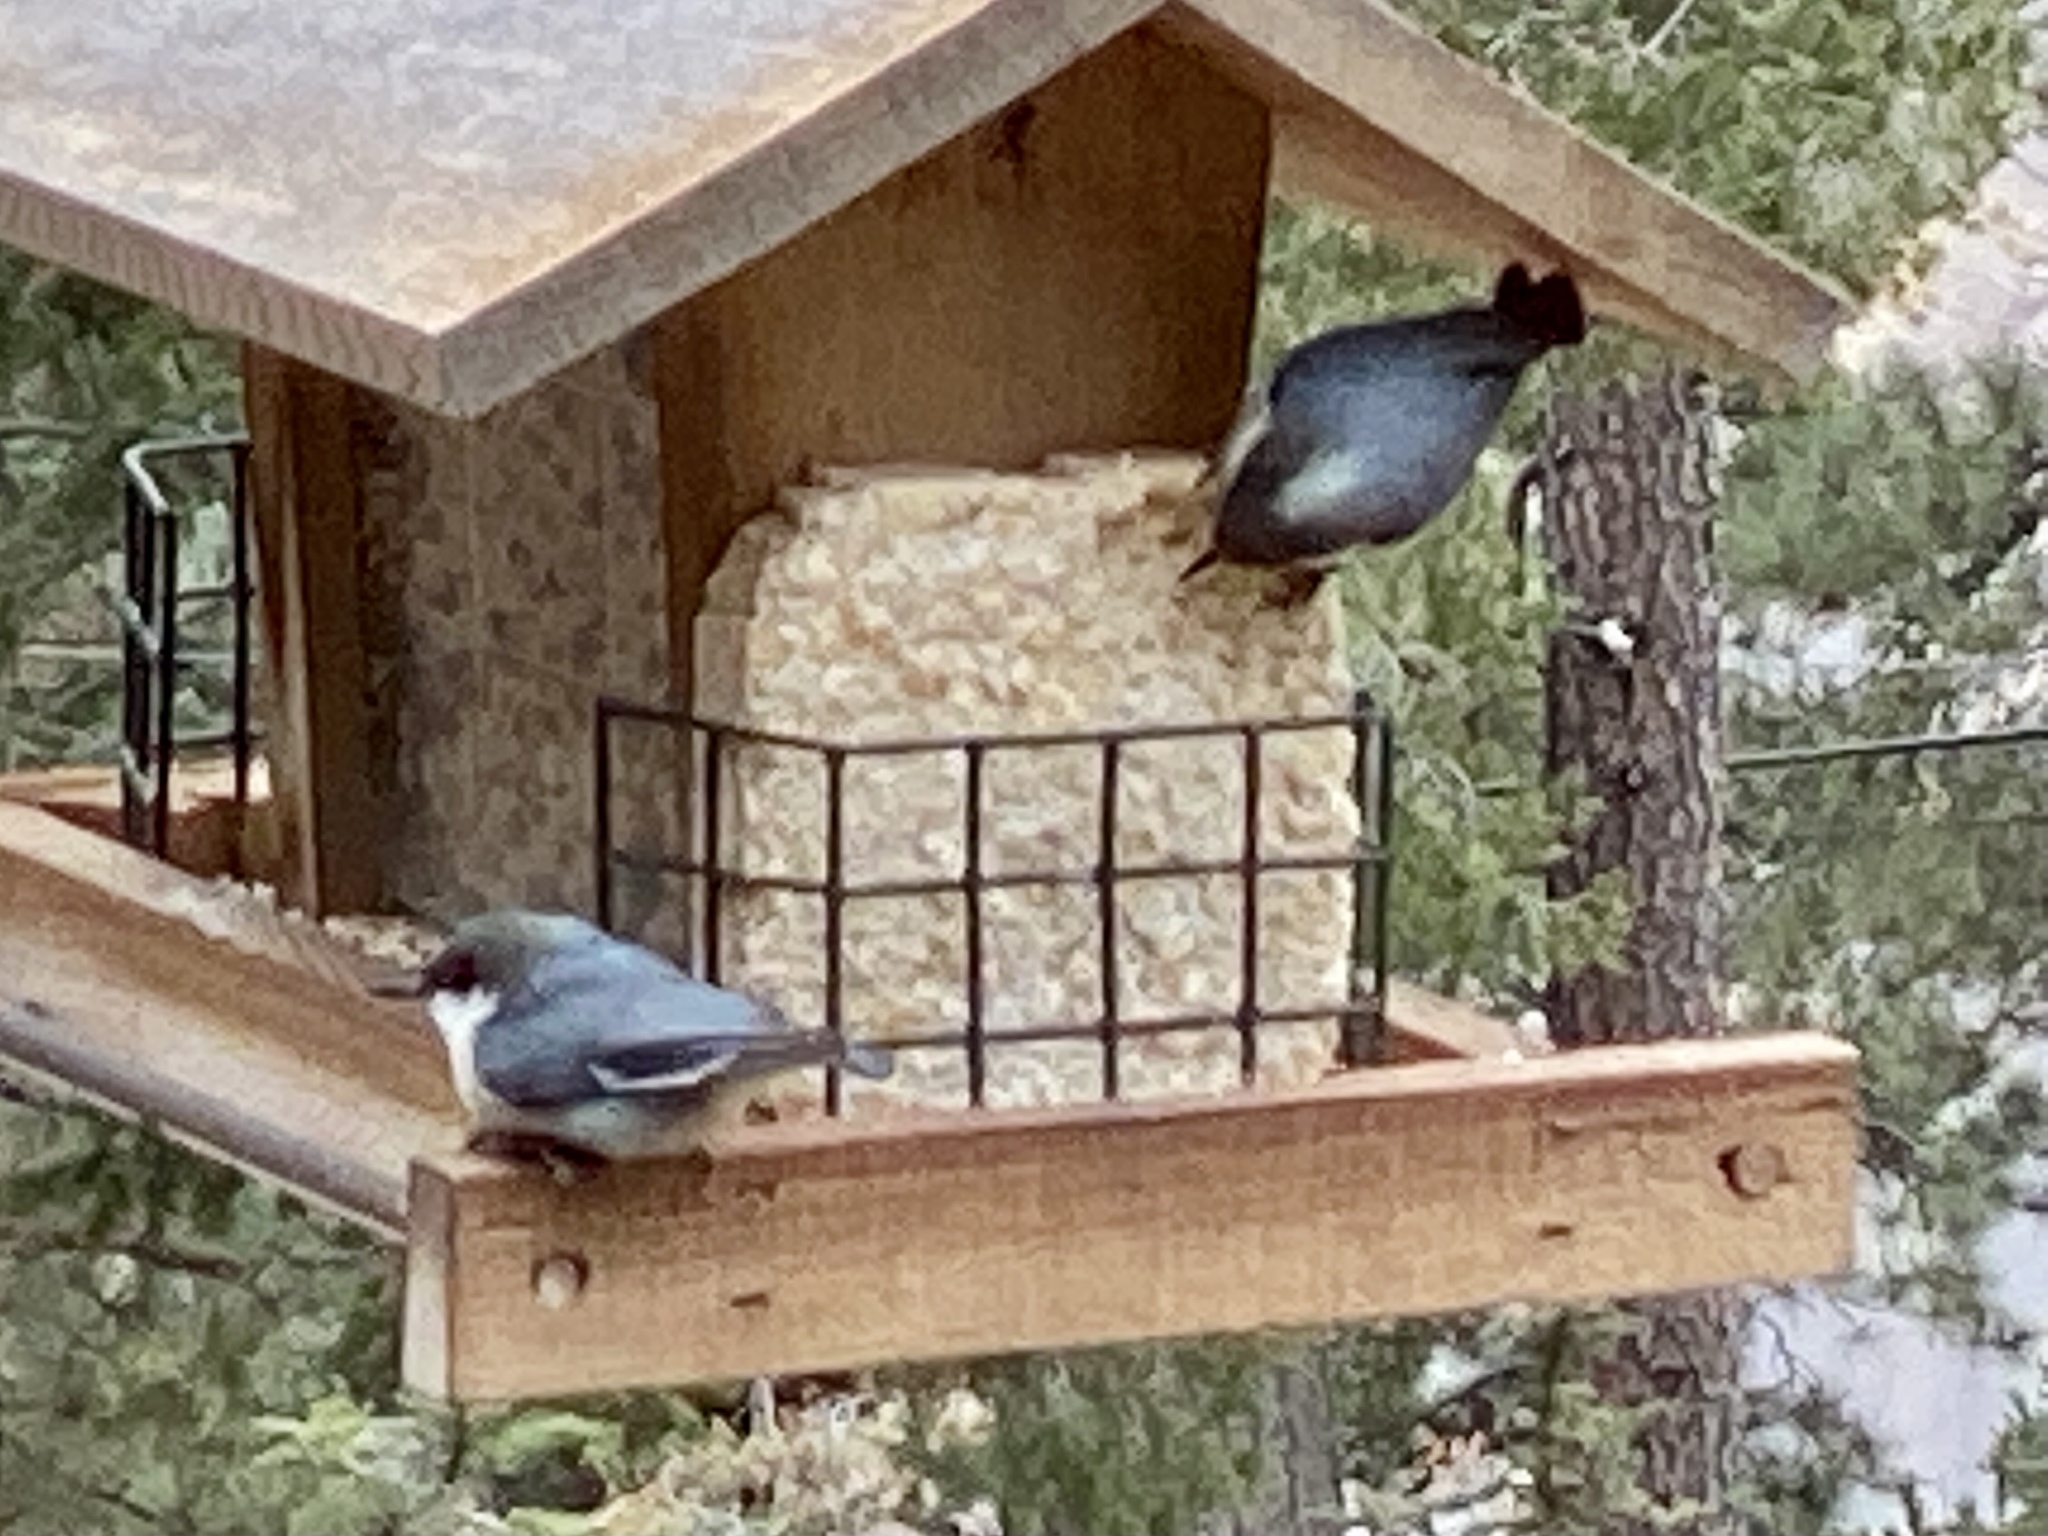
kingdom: Animalia
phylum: Chordata
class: Aves
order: Passeriformes
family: Sittidae
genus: Sitta
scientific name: Sitta pygmaea
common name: Pygmy nuthatch
